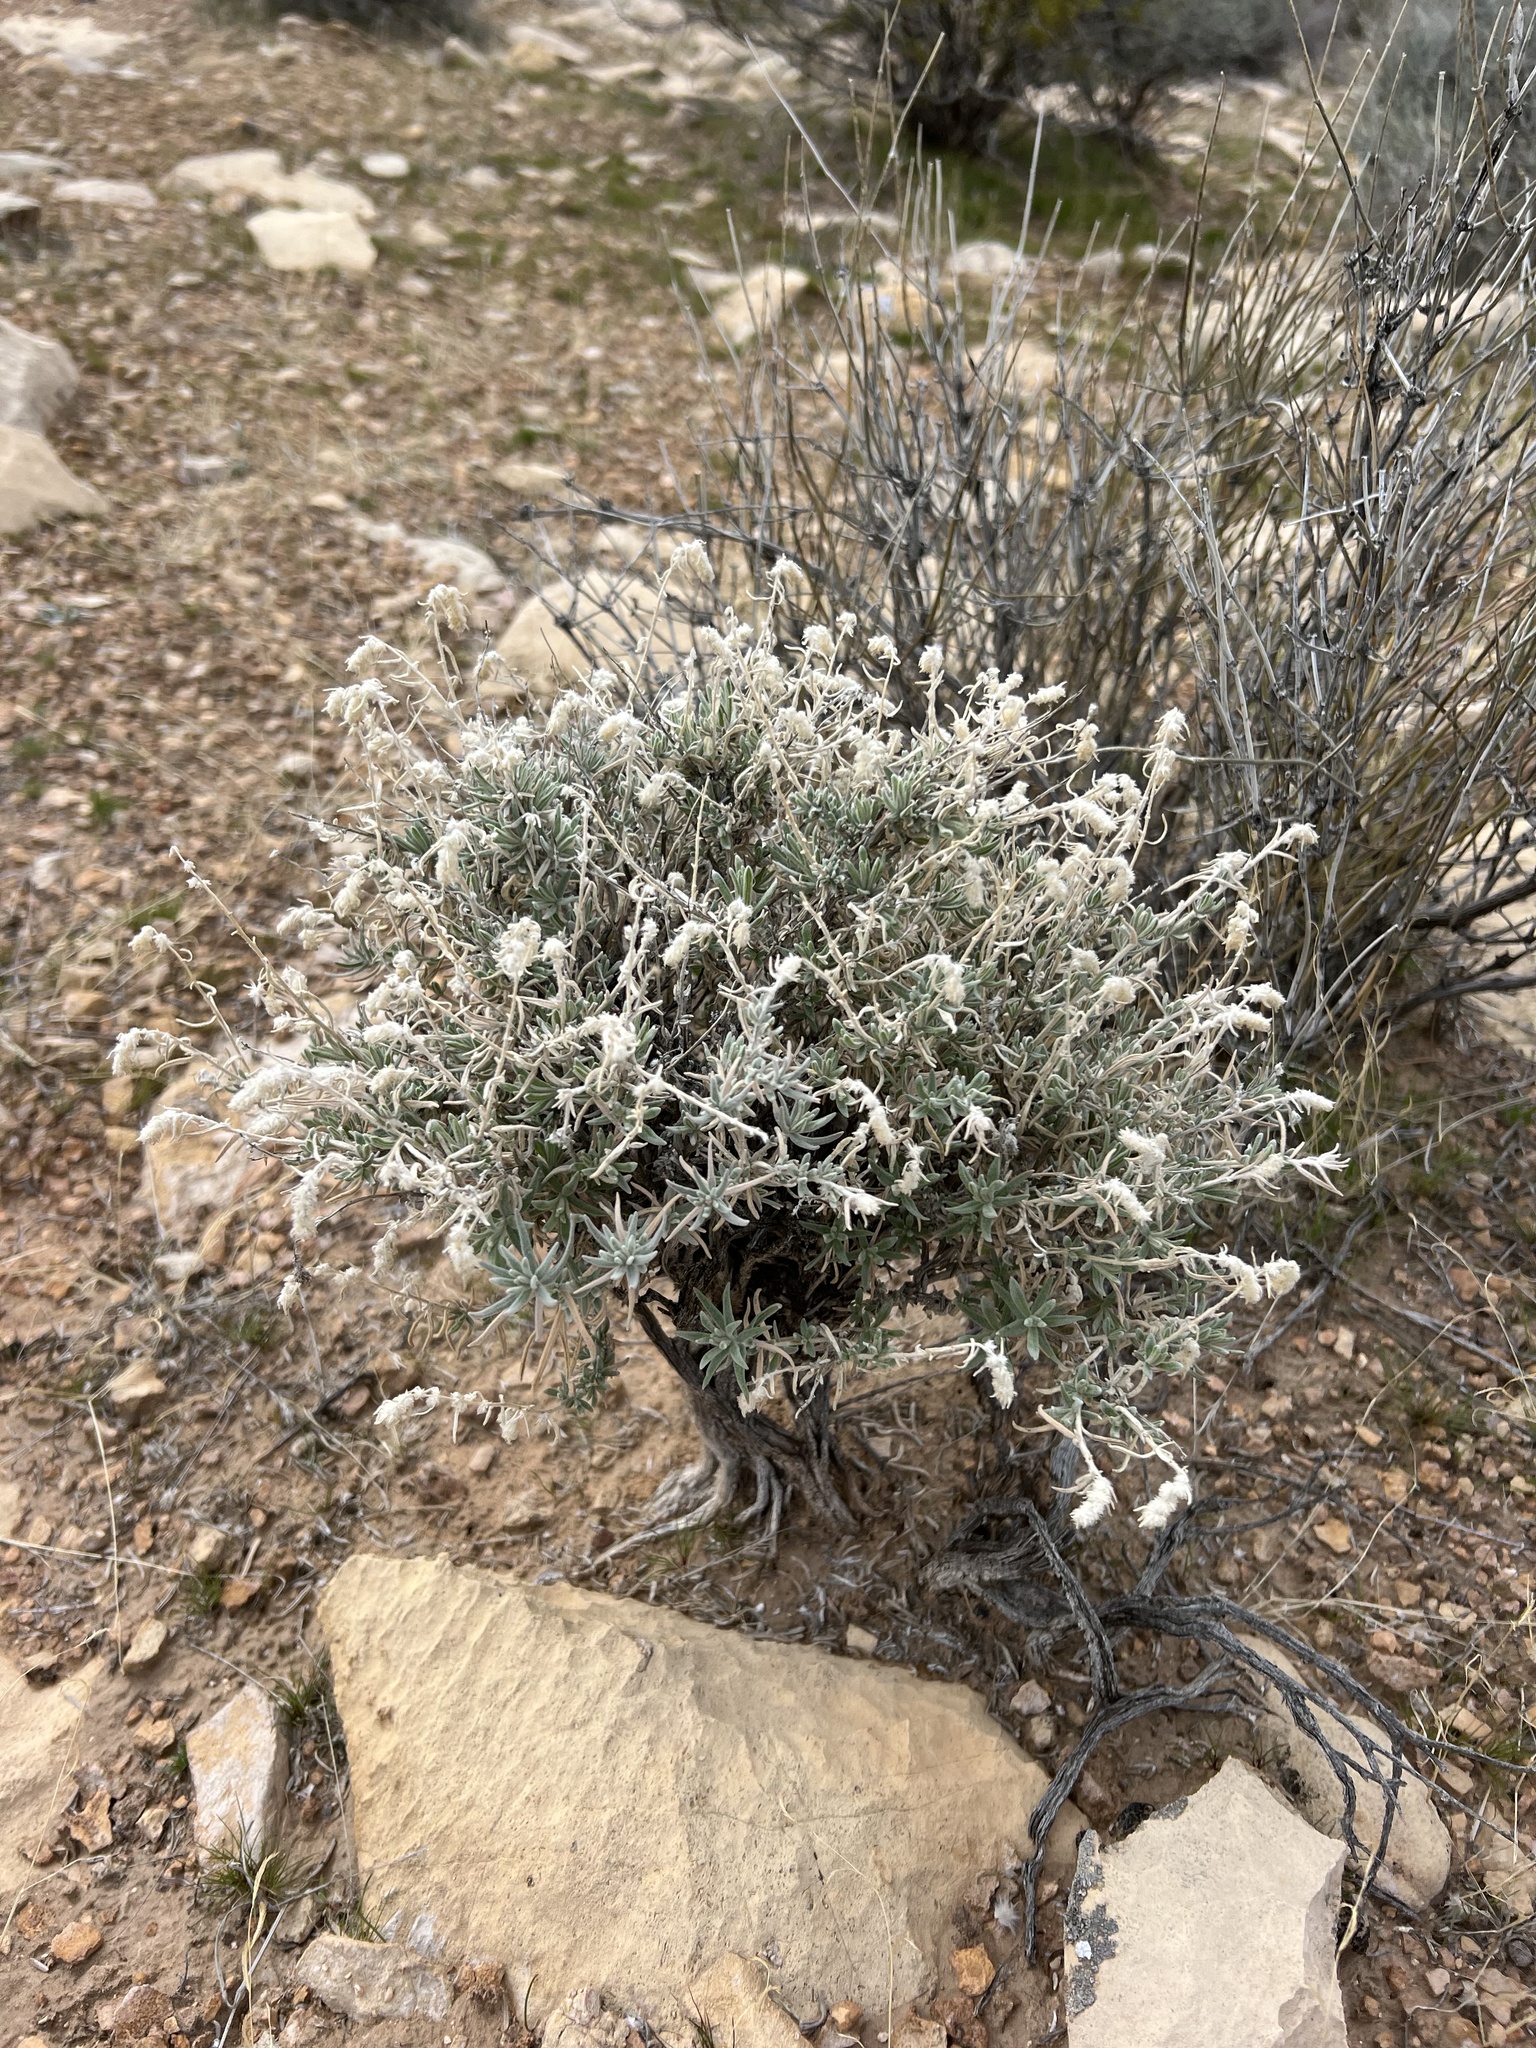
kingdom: Plantae
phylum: Tracheophyta
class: Magnoliopsida
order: Caryophyllales
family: Amaranthaceae
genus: Krascheninnikovia
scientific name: Krascheninnikovia lanata
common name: Winterfat
